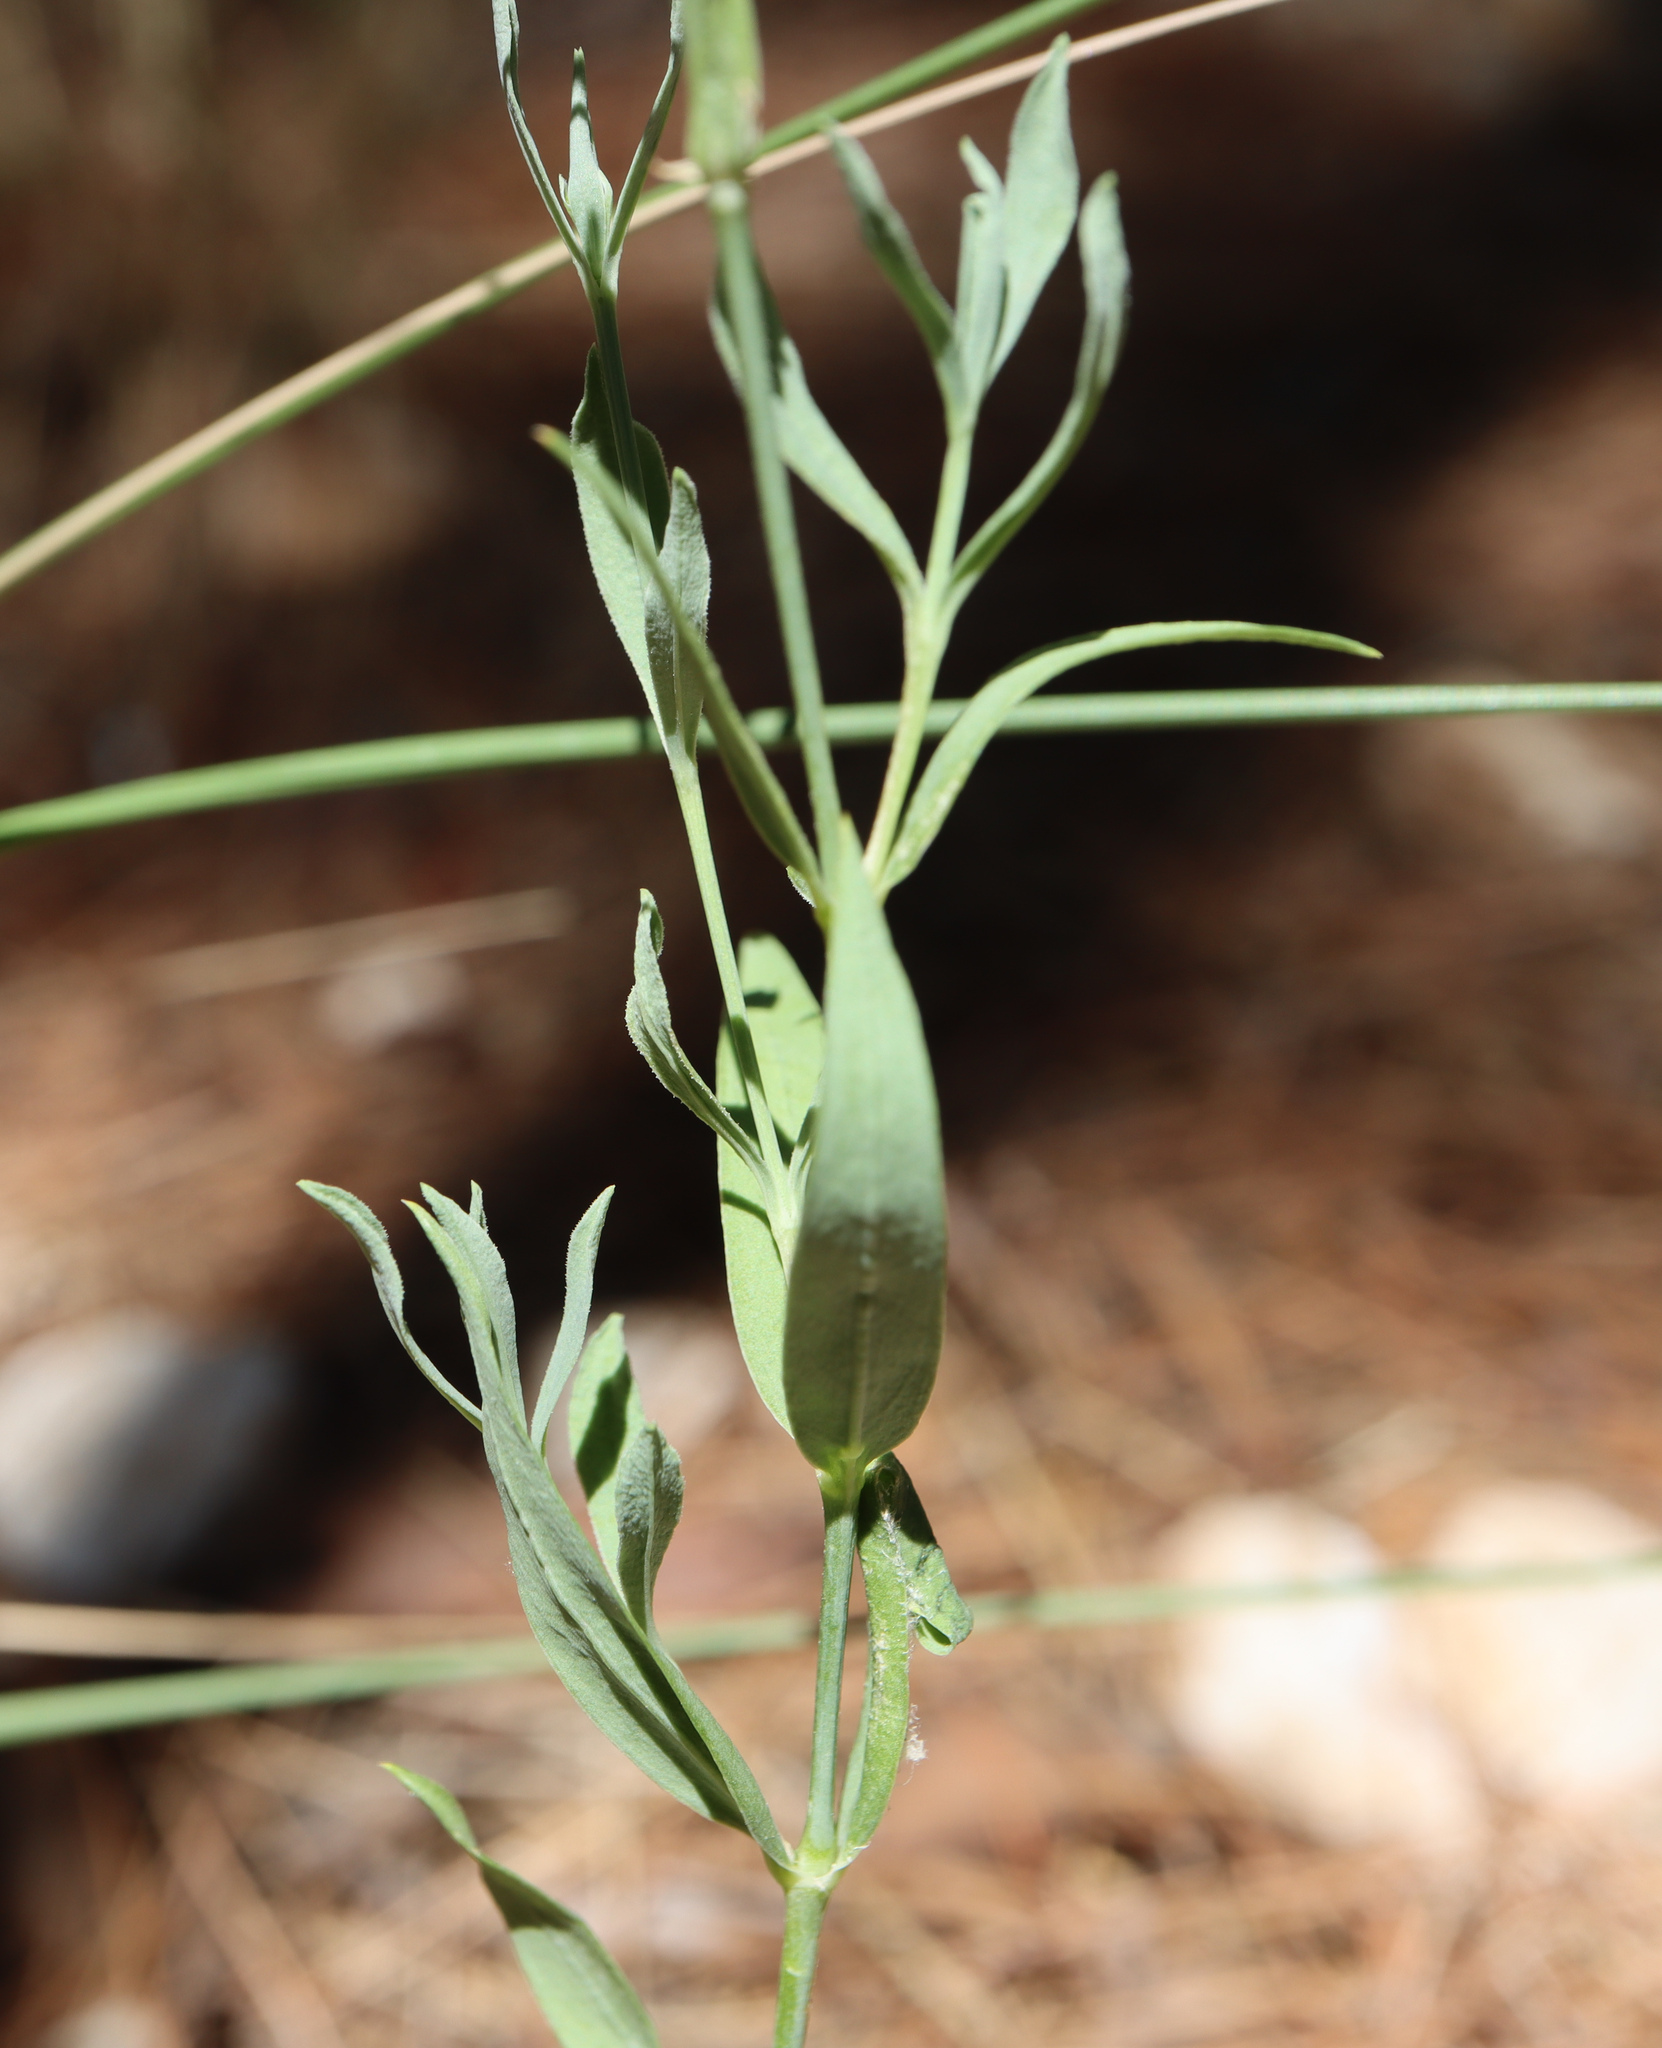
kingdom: Plantae
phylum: Tracheophyta
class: Magnoliopsida
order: Caryophyllales
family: Caryophyllaceae
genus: Silene
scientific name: Silene vulgaris
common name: Bladder campion
